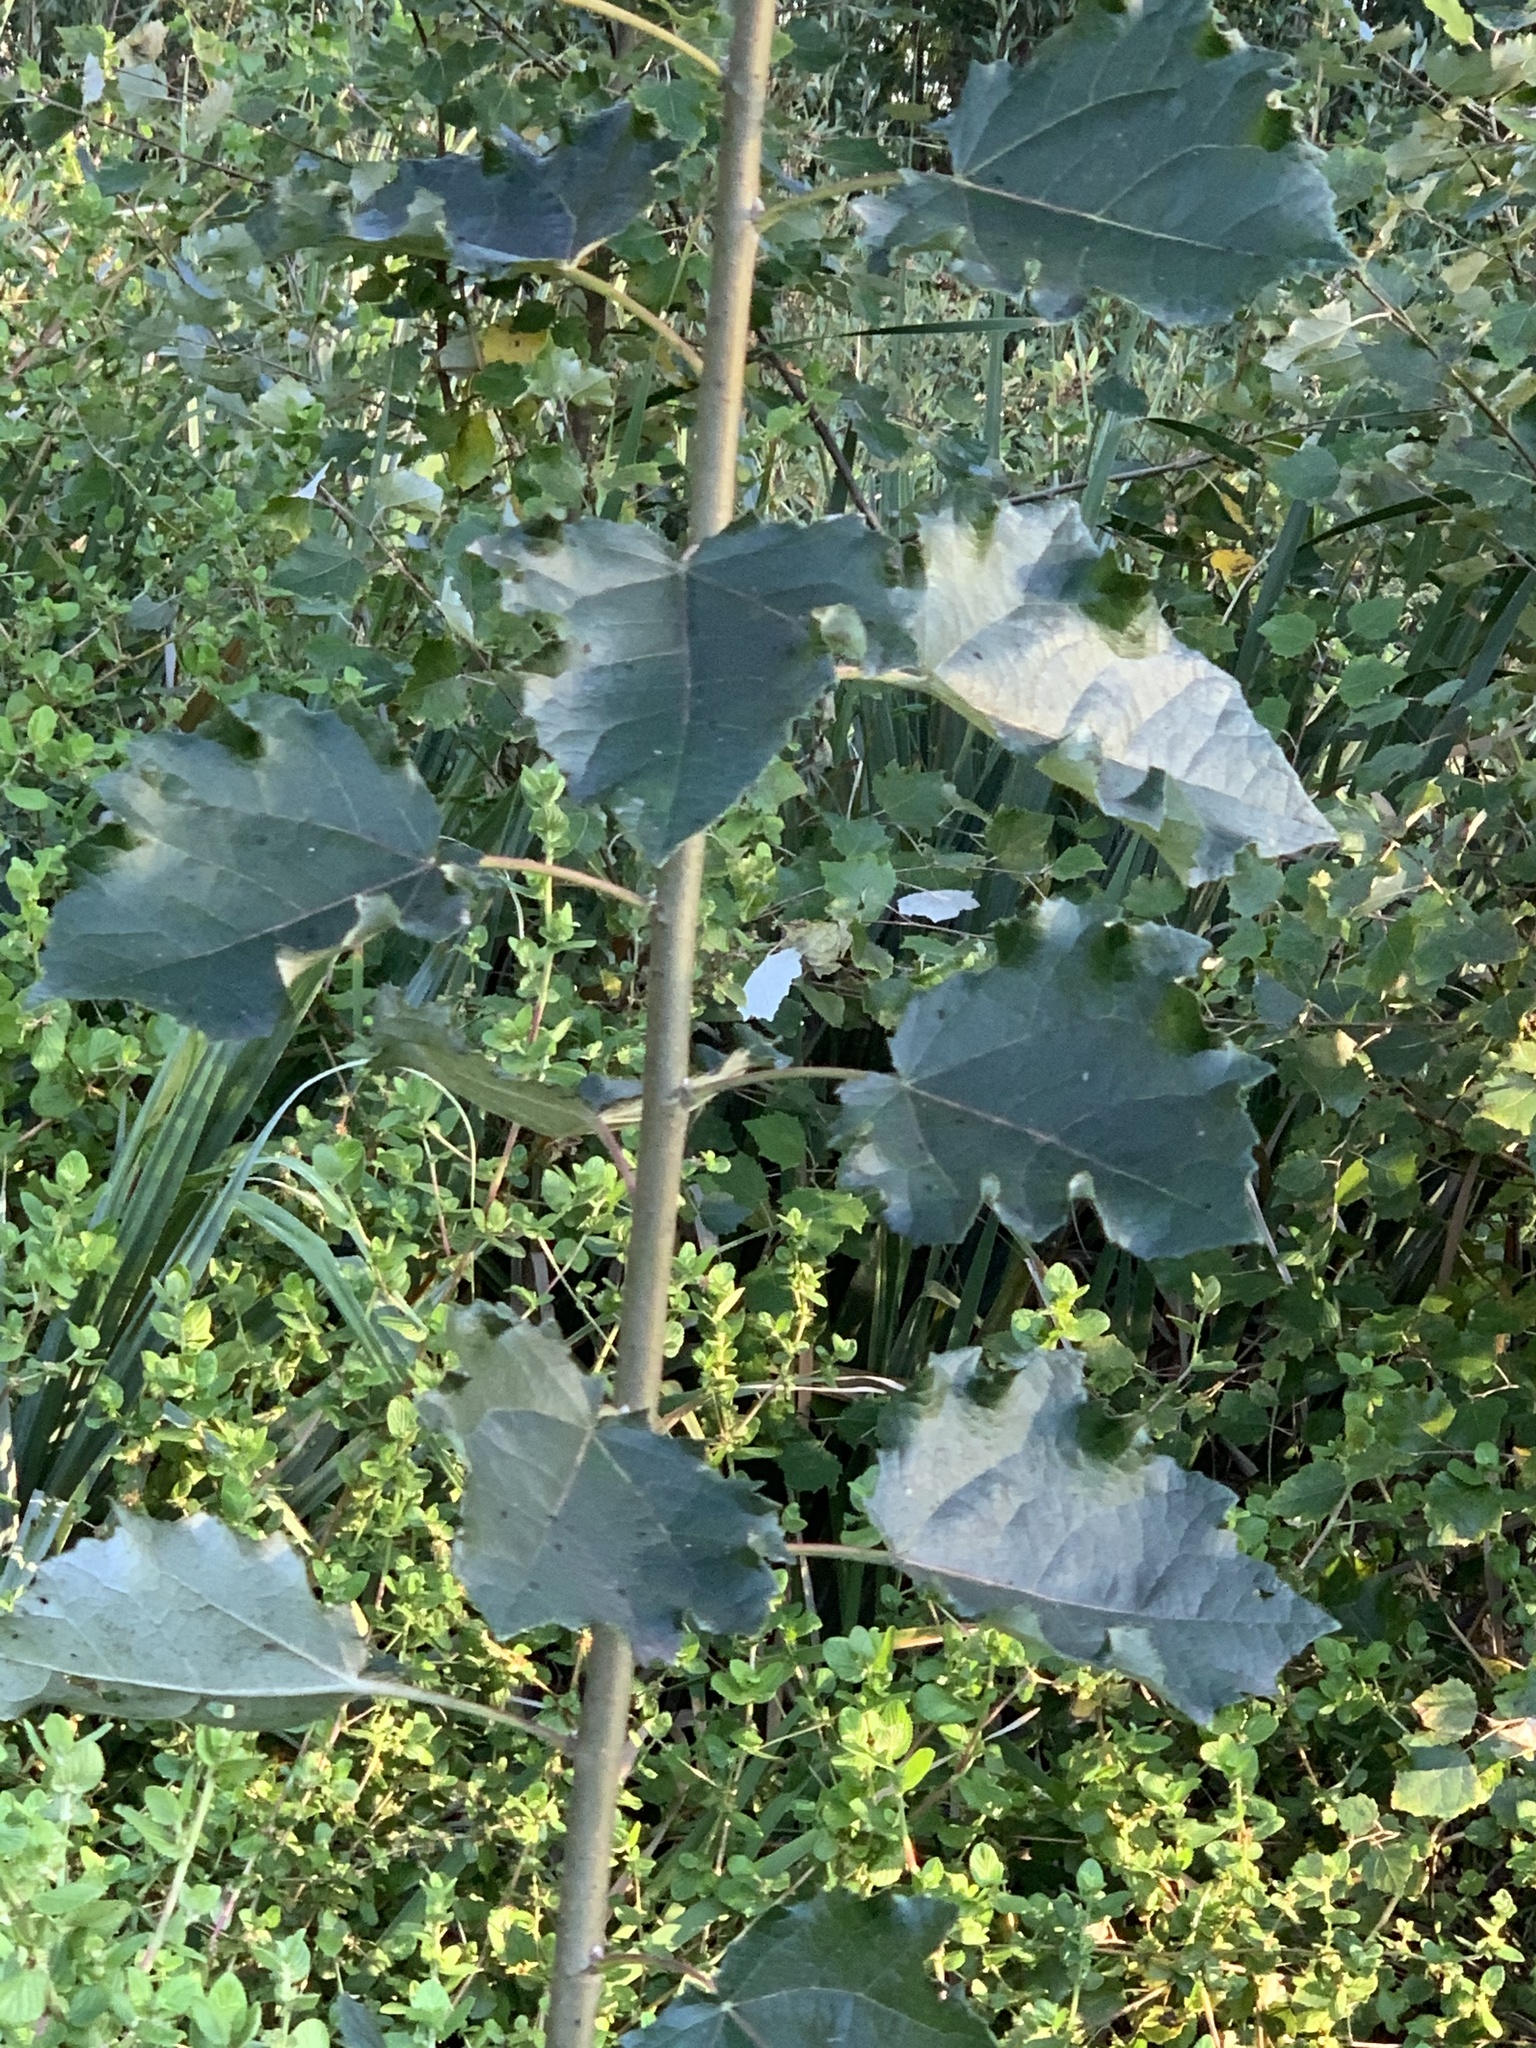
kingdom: Plantae
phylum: Tracheophyta
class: Magnoliopsida
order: Malpighiales
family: Salicaceae
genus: Populus
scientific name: Populus canescens
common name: Gray poplar
